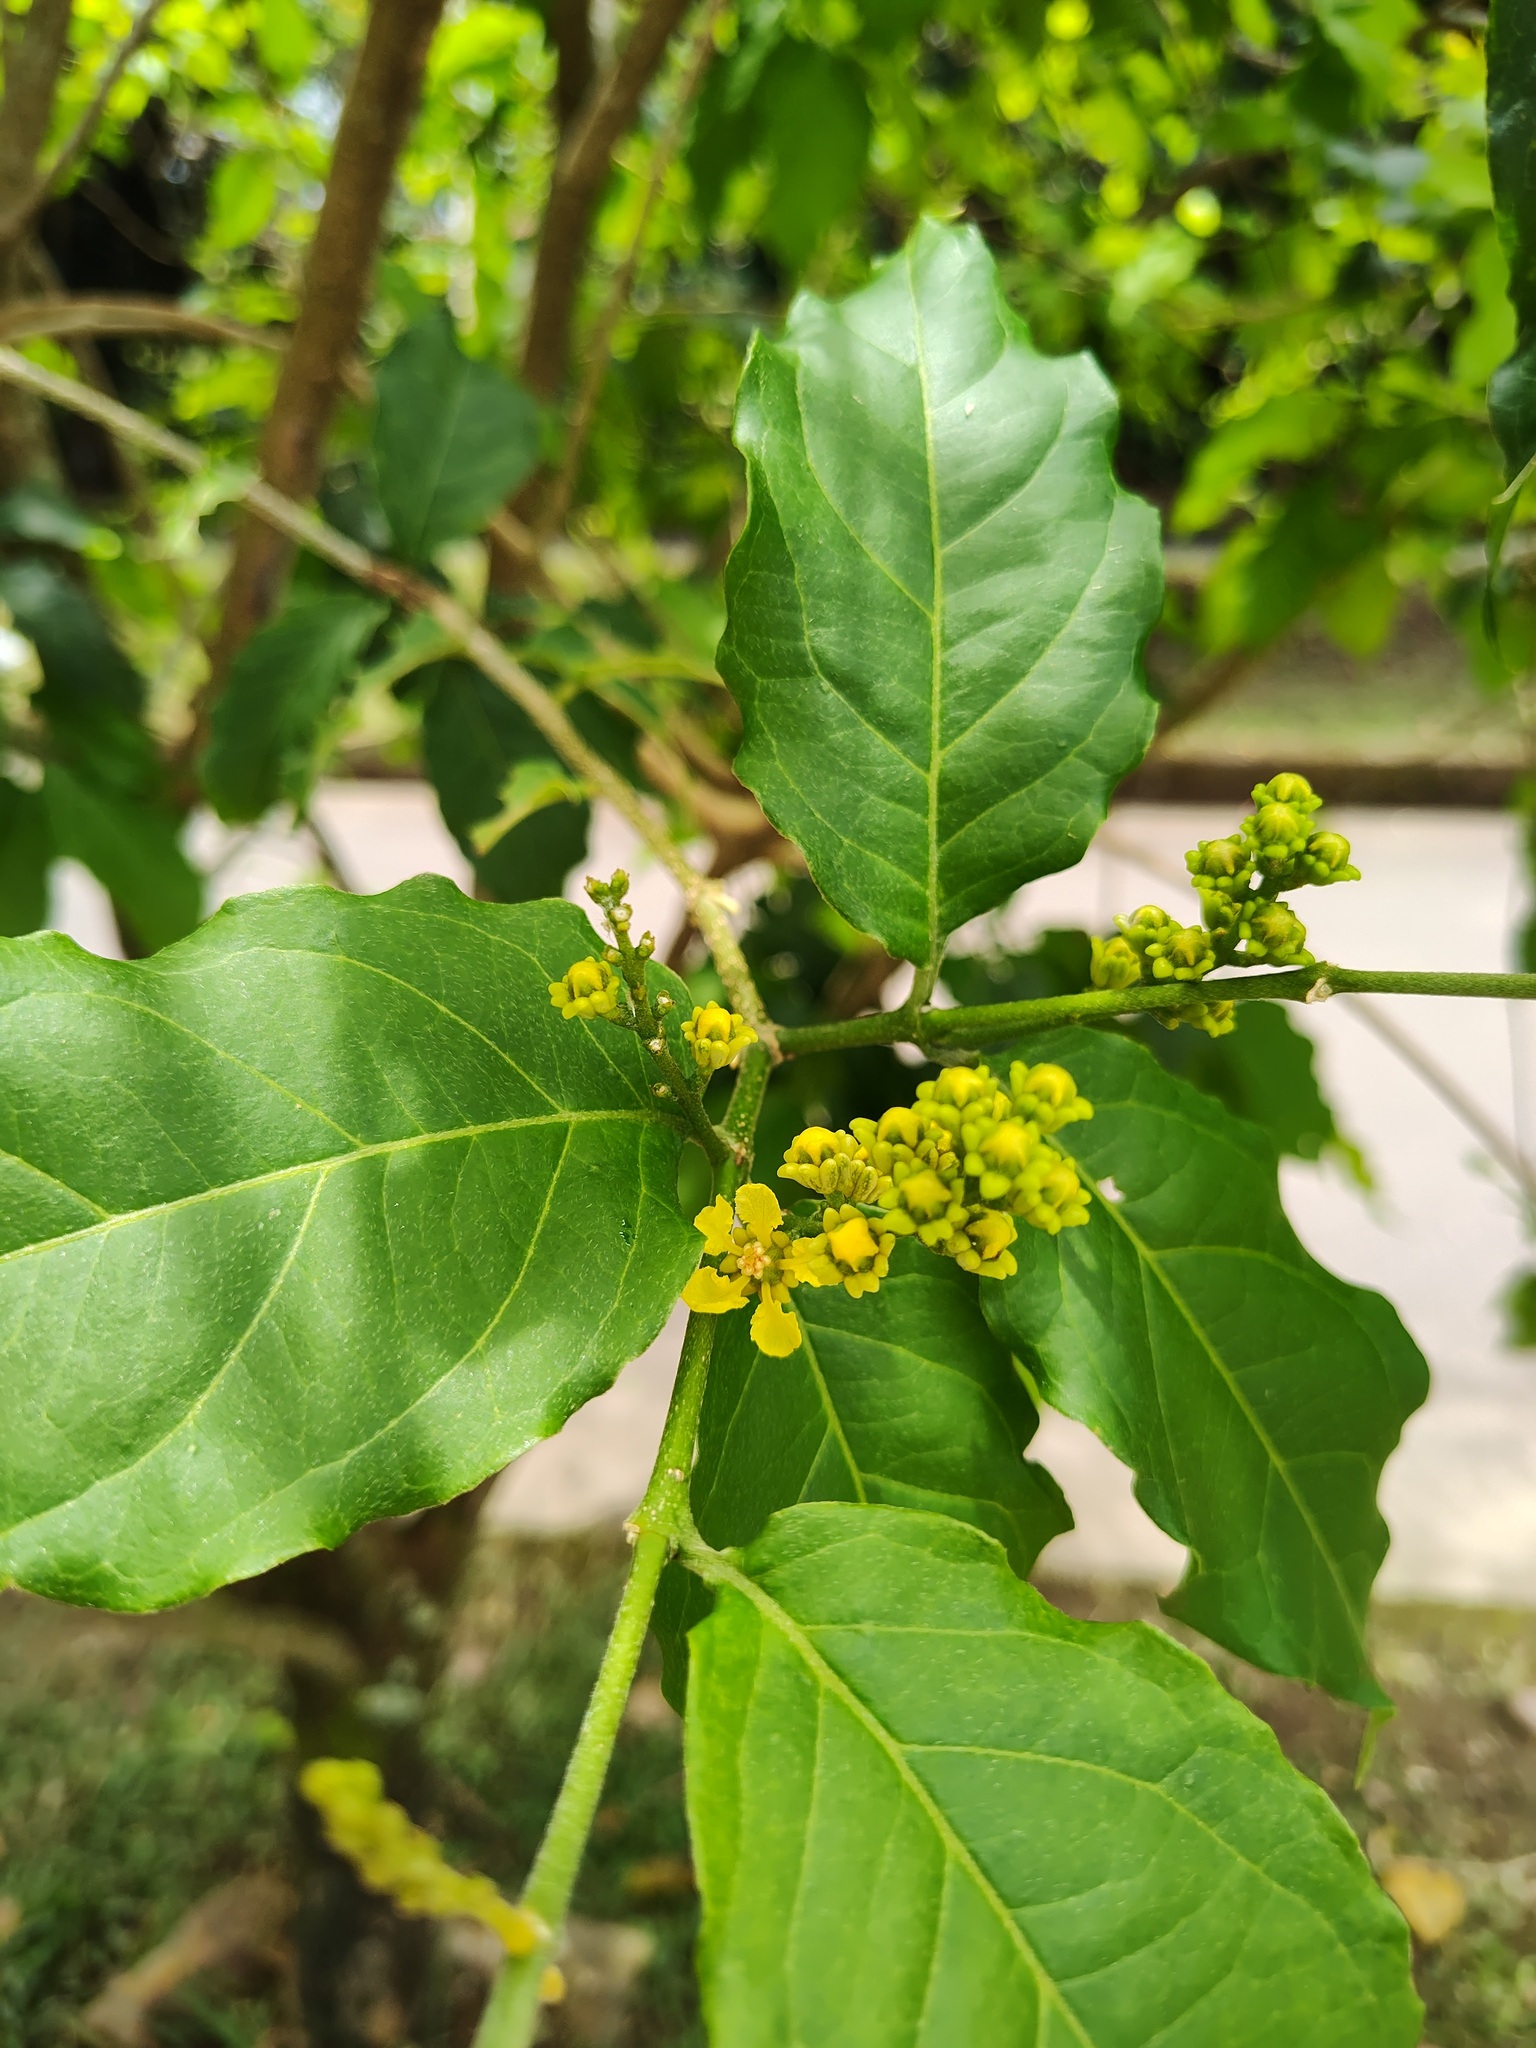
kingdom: Plantae
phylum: Tracheophyta
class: Magnoliopsida
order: Malpighiales
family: Malpighiaceae
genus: Bunchosia
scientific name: Bunchosia armeniaca
